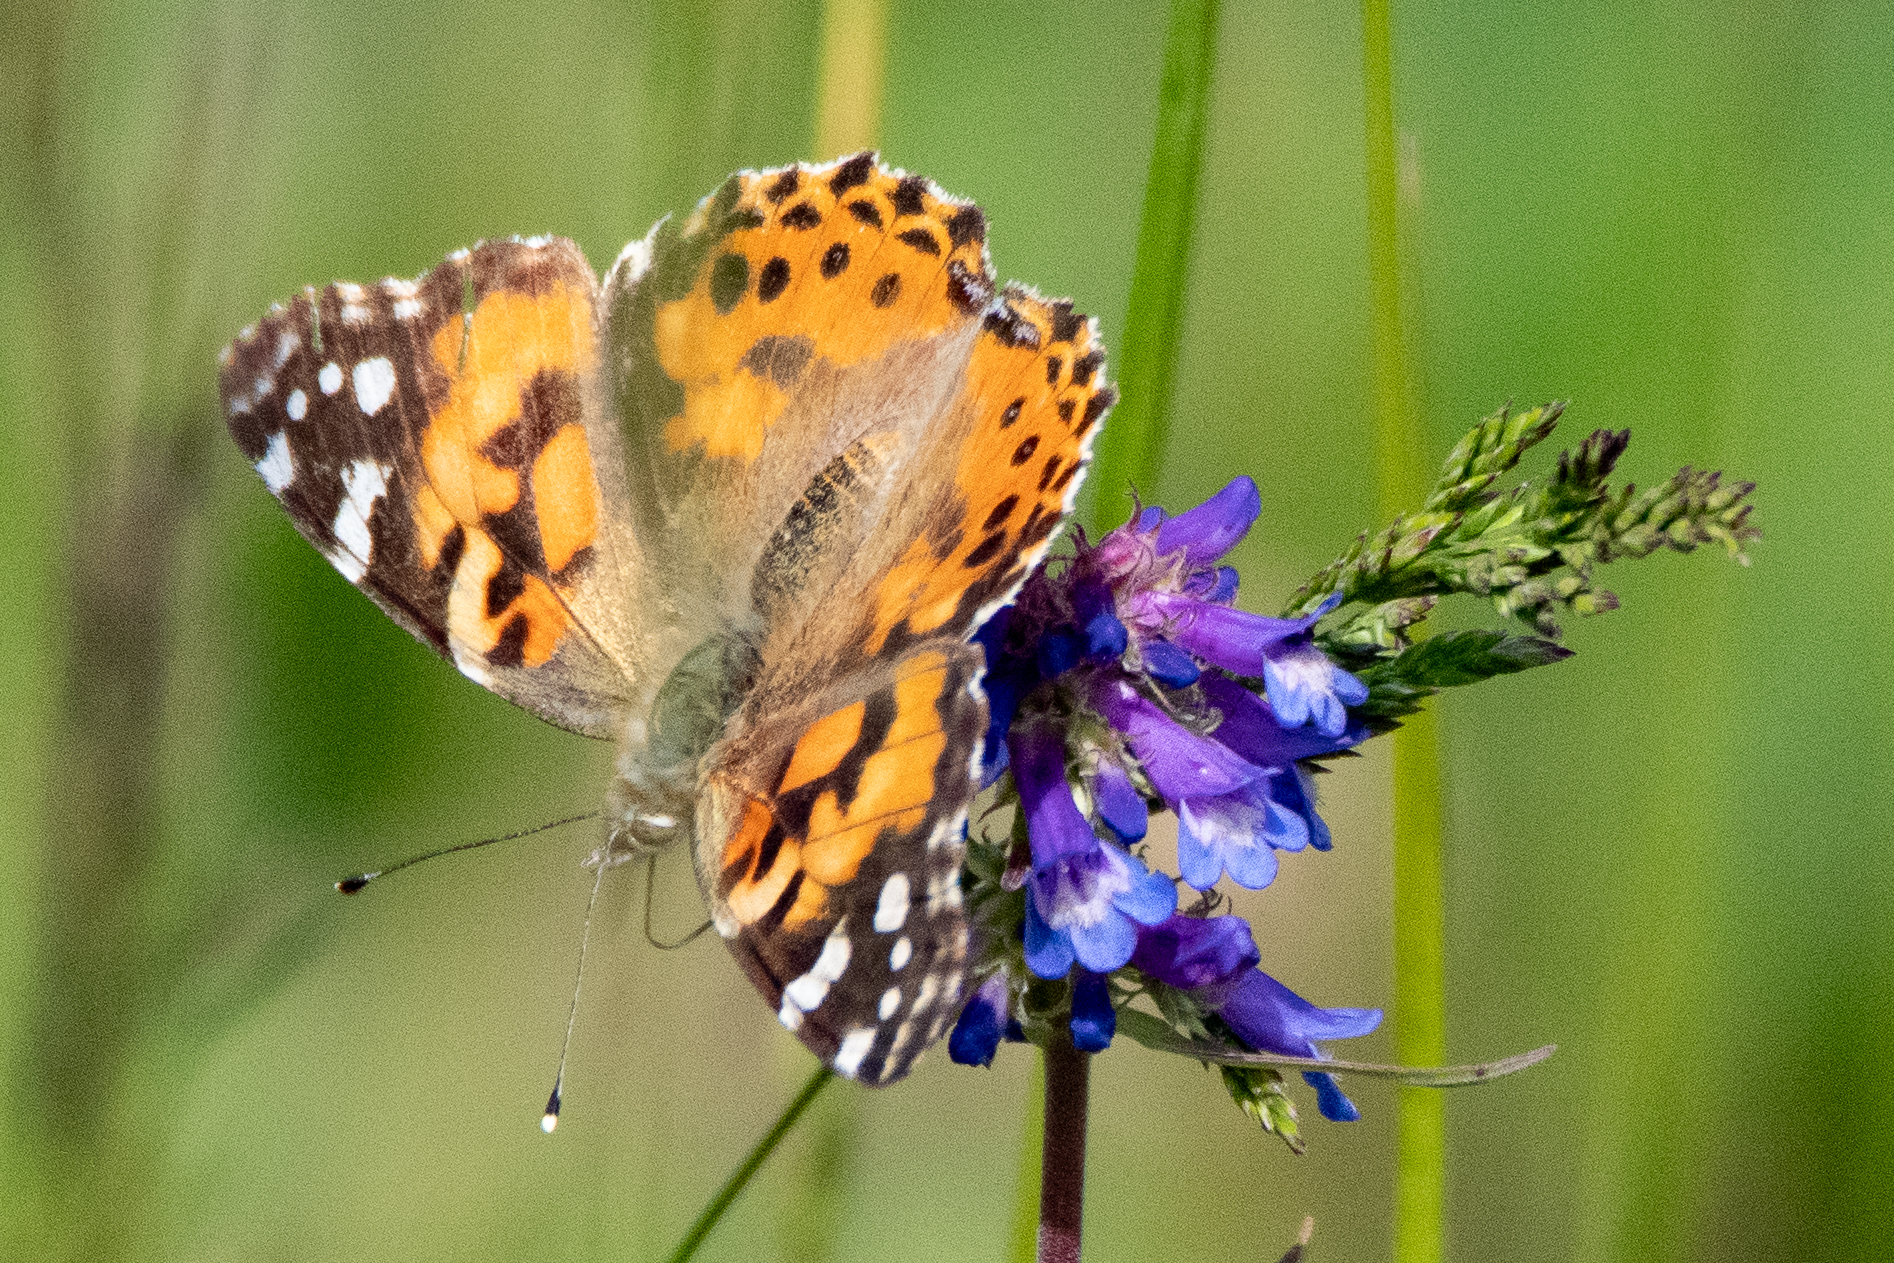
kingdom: Animalia
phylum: Arthropoda
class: Insecta
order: Lepidoptera
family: Nymphalidae
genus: Vanessa
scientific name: Vanessa cardui
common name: Painted lady
